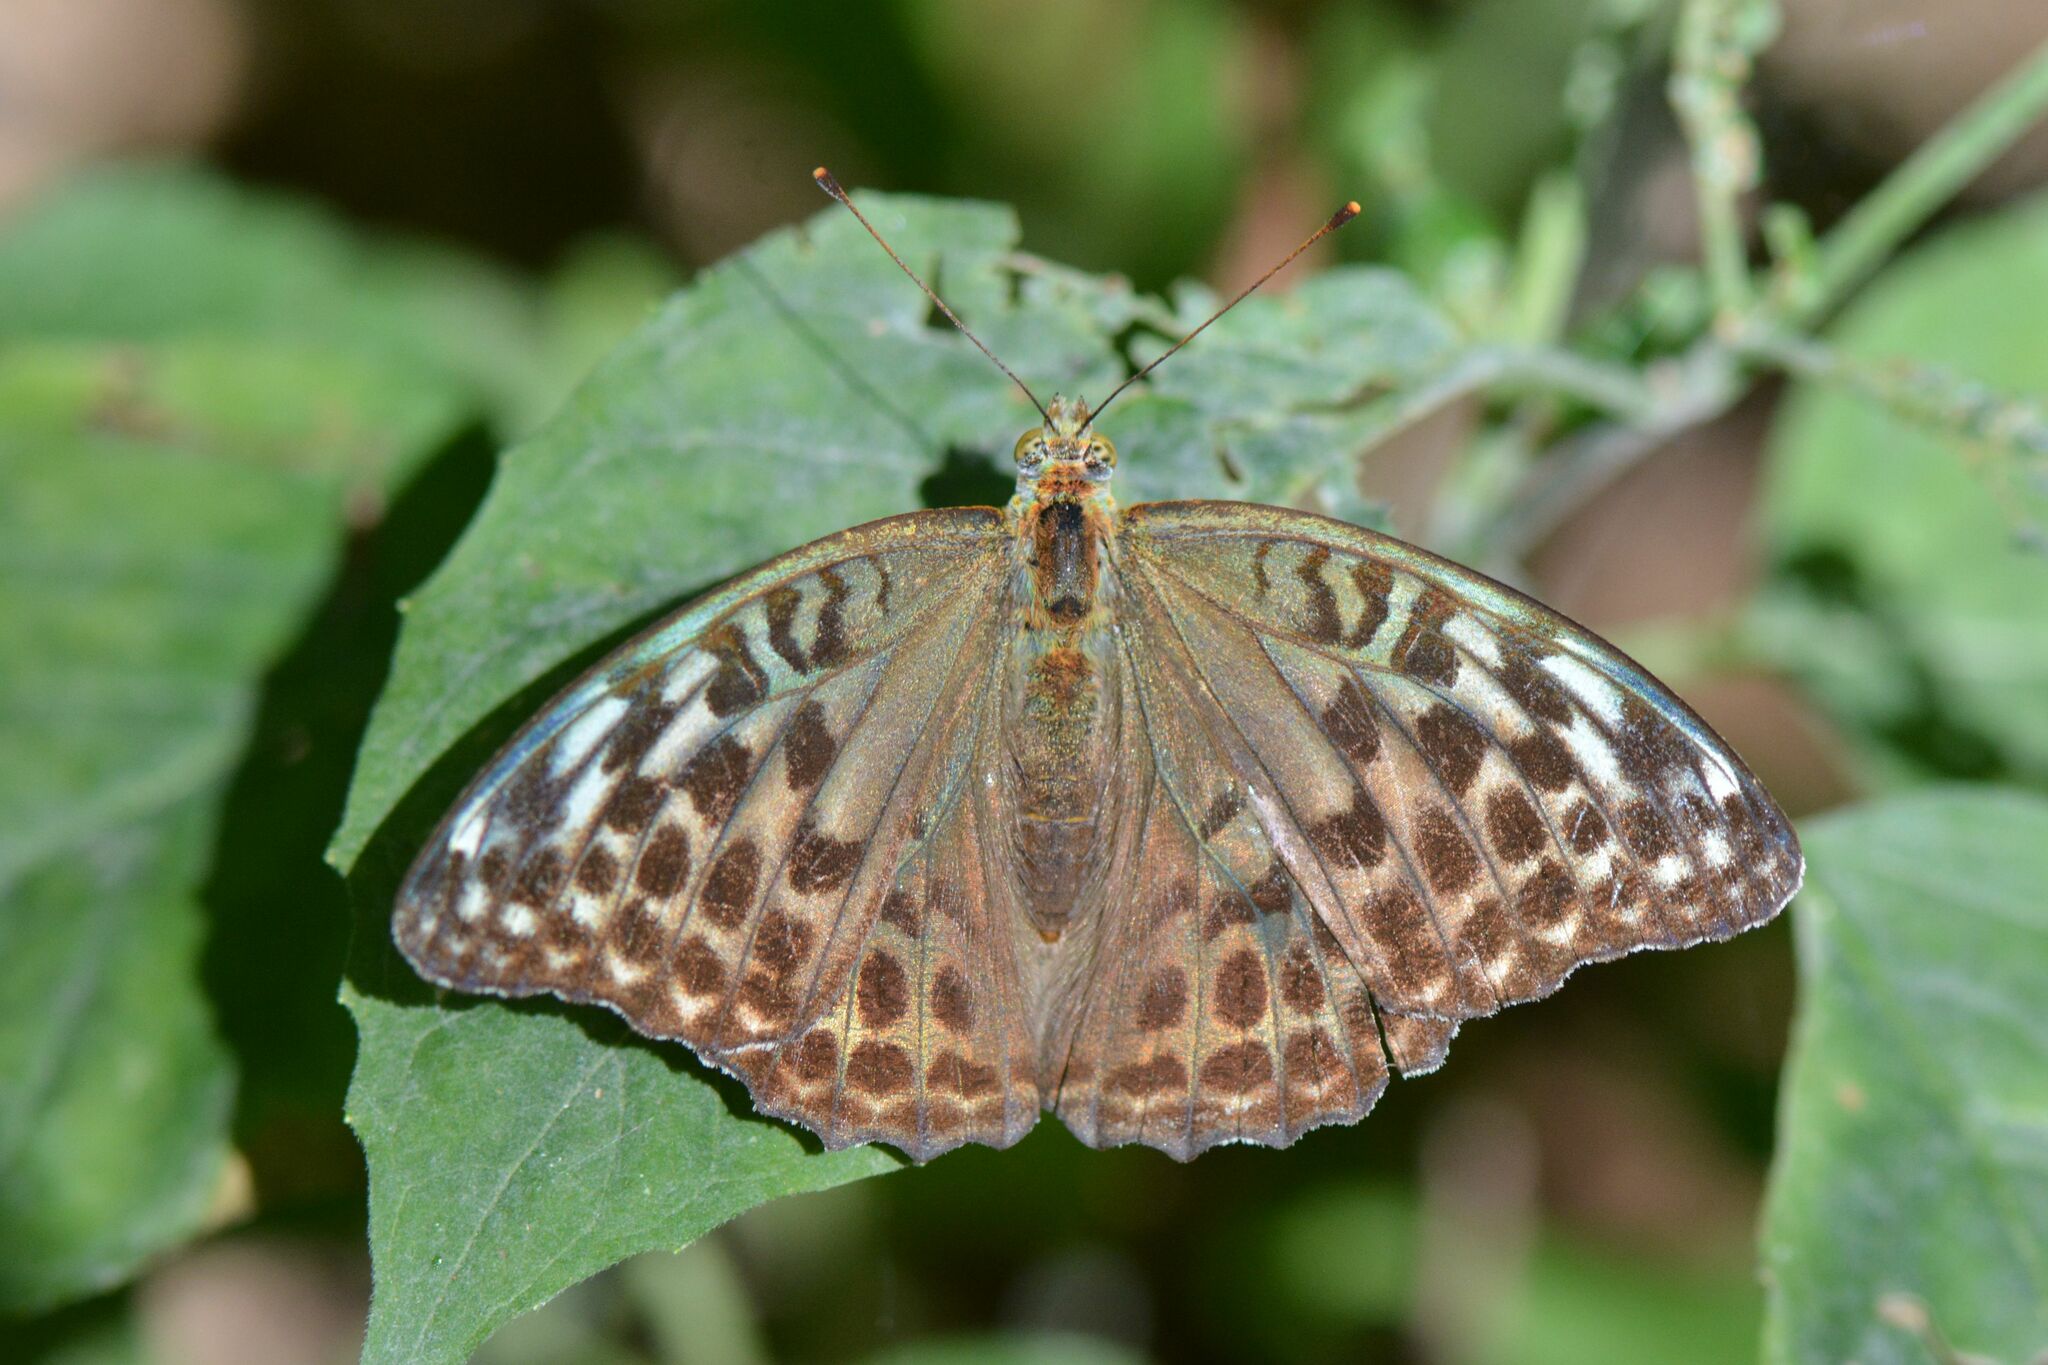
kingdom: Animalia
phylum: Arthropoda
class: Insecta
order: Lepidoptera
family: Nymphalidae
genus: Argynnis
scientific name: Argynnis paphia
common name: Silver-washed fritillary
